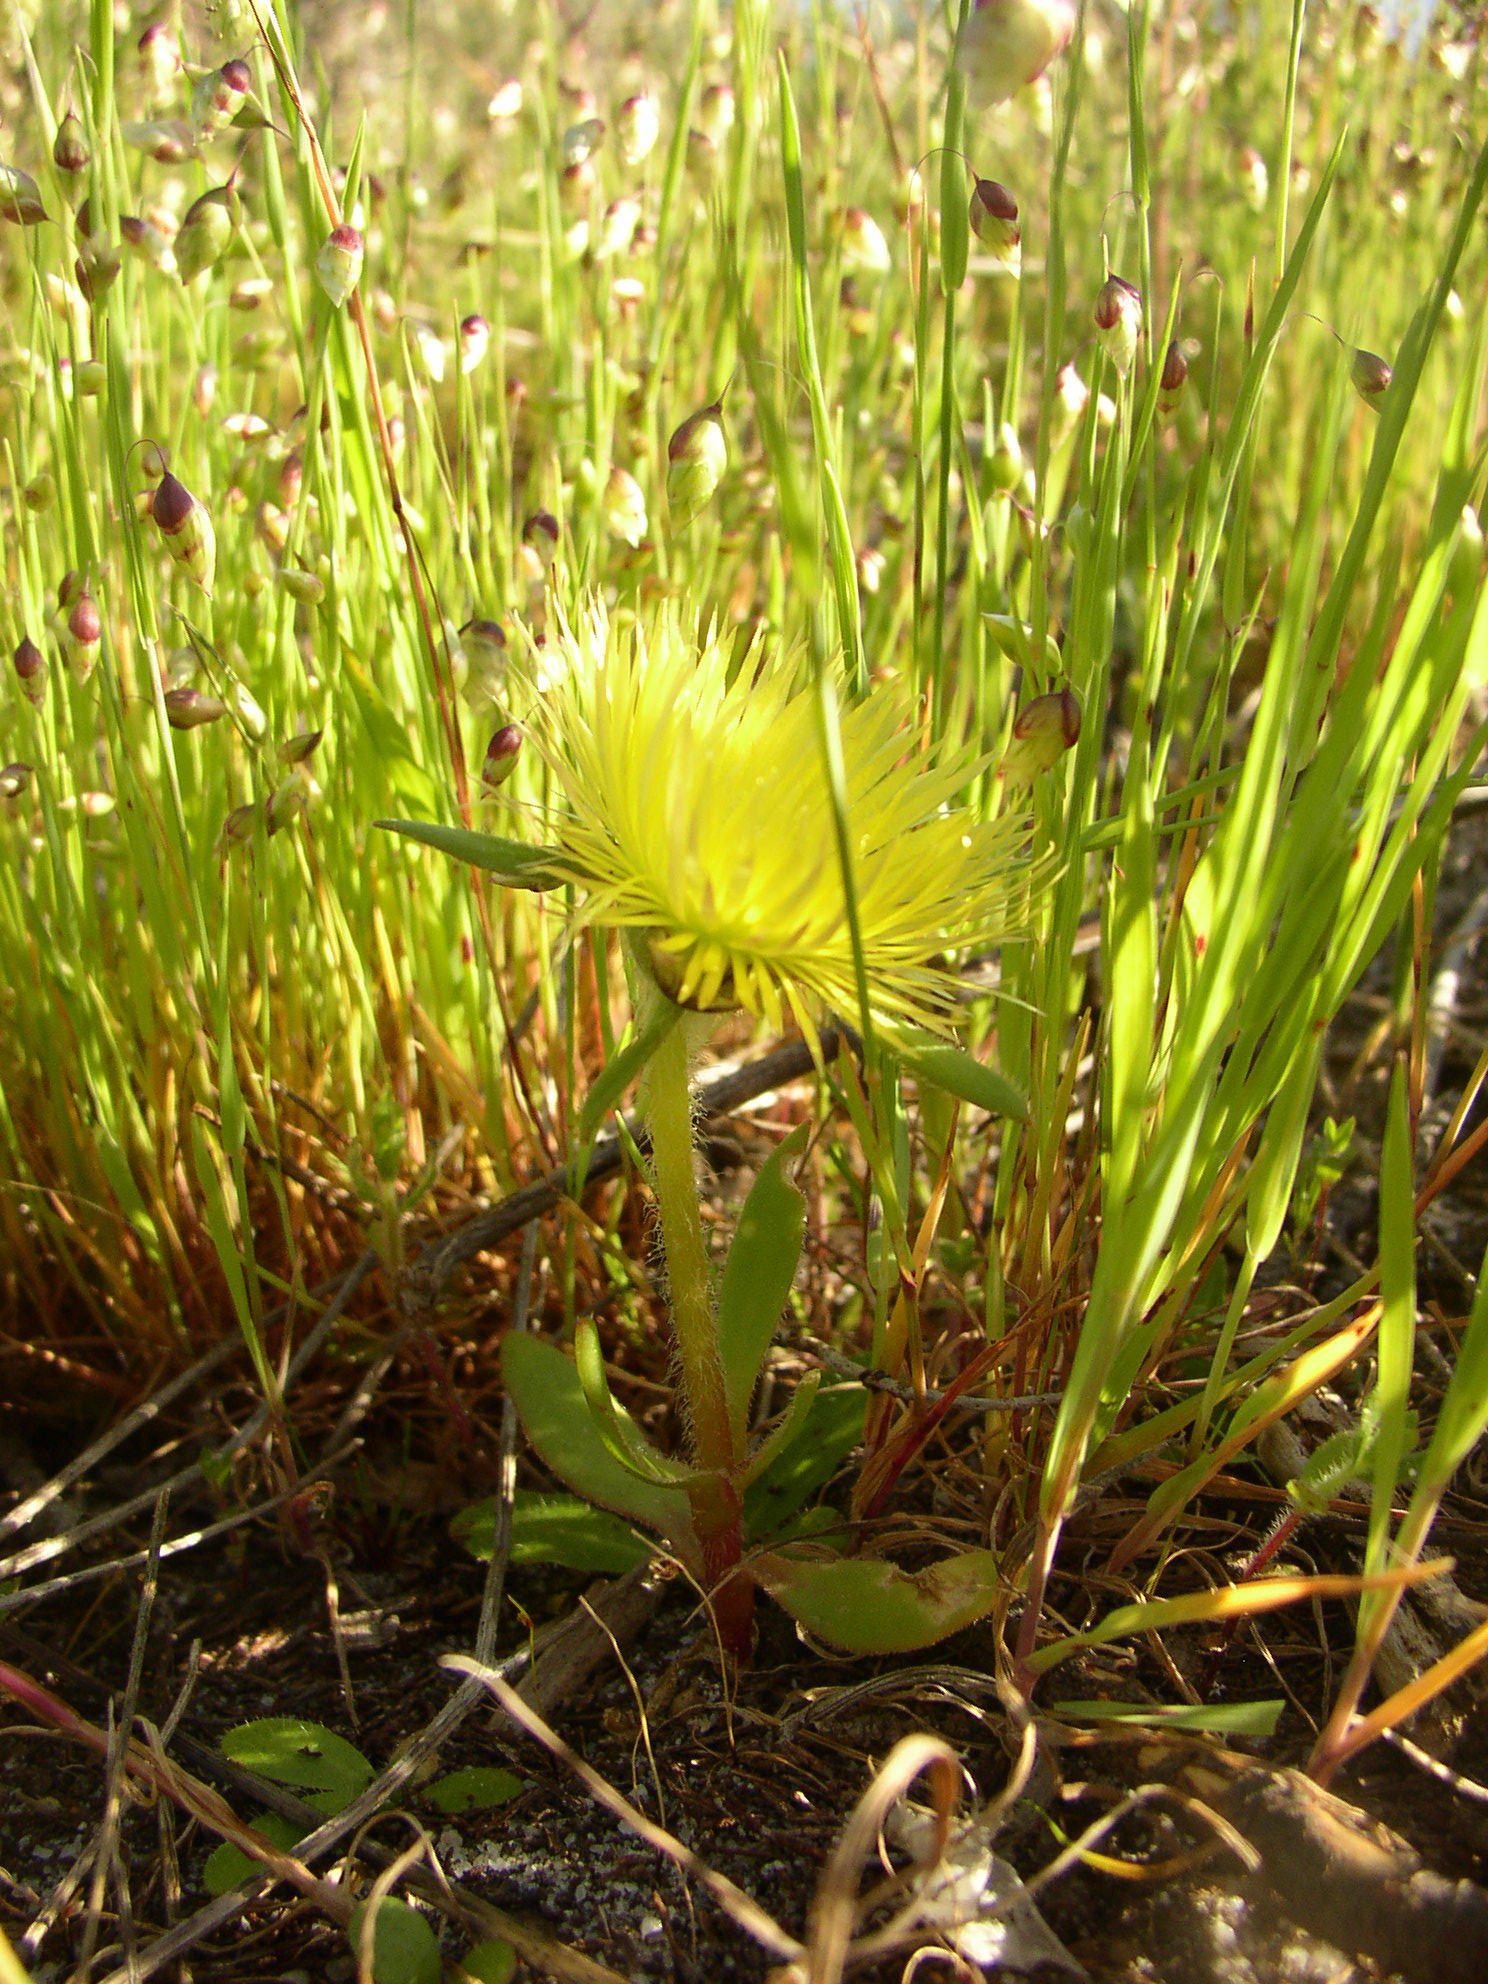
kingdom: Plantae
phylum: Tracheophyta
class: Magnoliopsida
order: Caryophyllales
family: Aizoaceae
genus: Carpanthea
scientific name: Carpanthea pomeridiana
